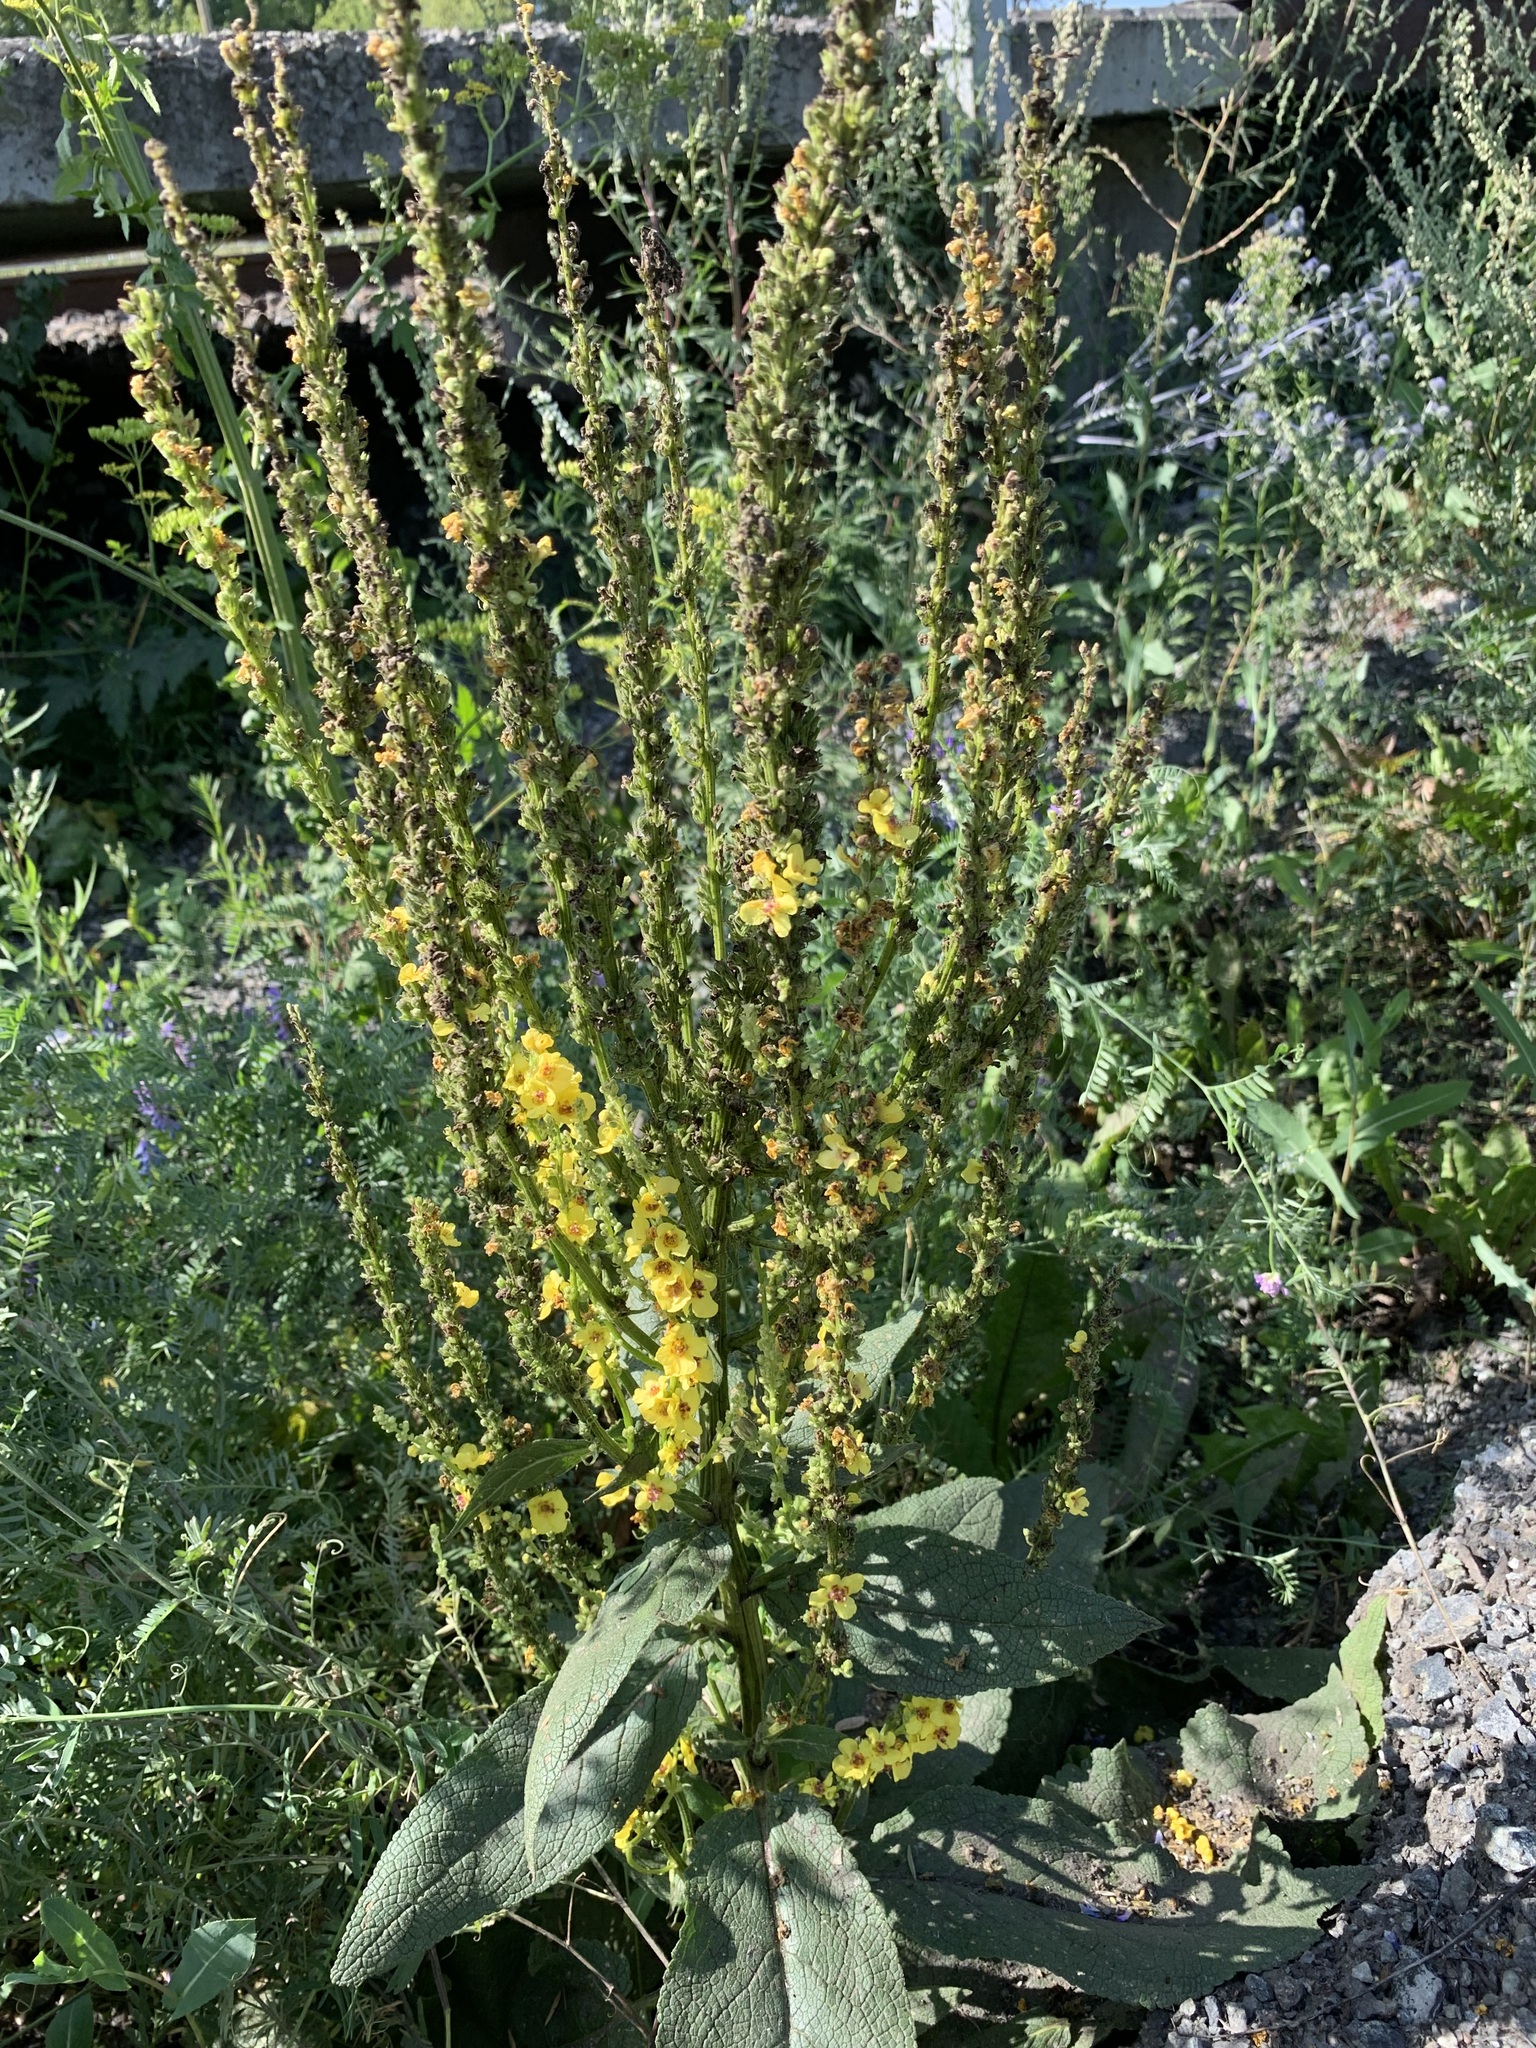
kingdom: Plantae
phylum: Tracheophyta
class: Magnoliopsida
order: Lamiales
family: Scrophulariaceae
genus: Verbascum
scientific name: Verbascum nigrum
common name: Dark mullein
